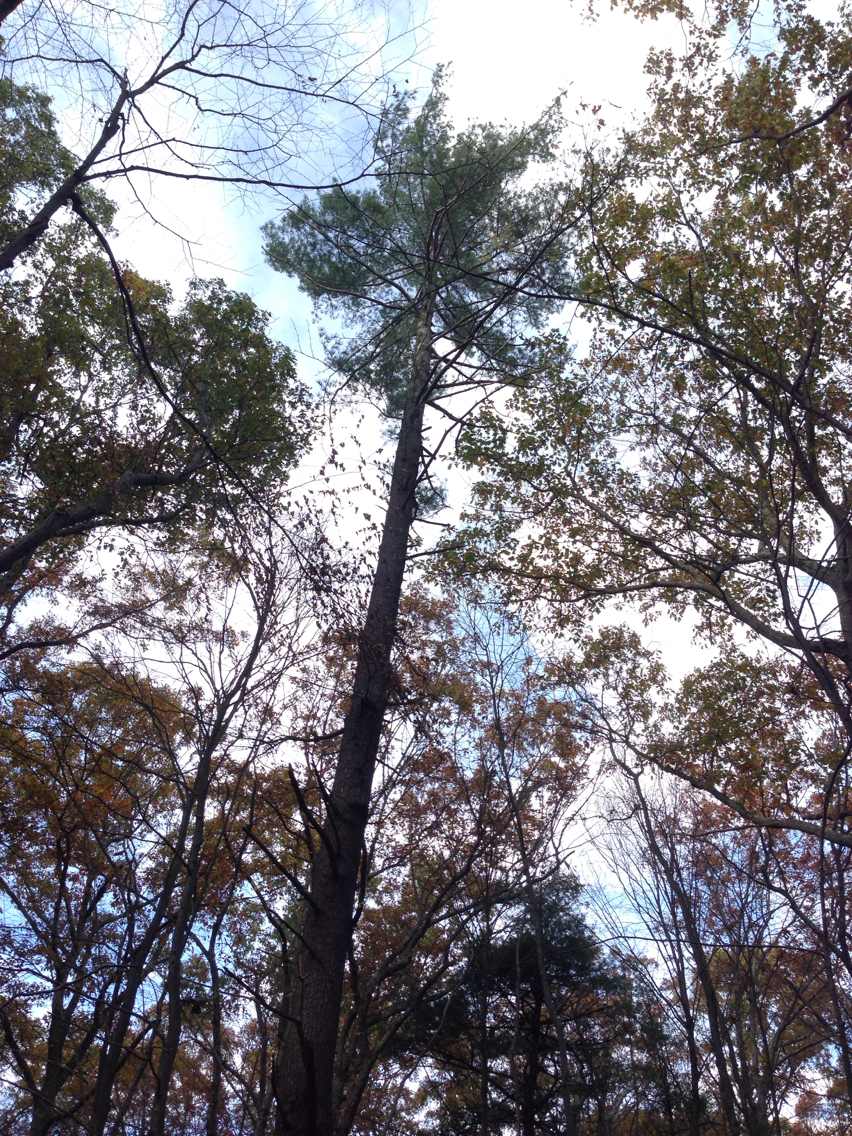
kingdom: Plantae
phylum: Tracheophyta
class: Pinopsida
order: Pinales
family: Pinaceae
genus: Pinus
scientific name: Pinus strobus
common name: Weymouth pine
